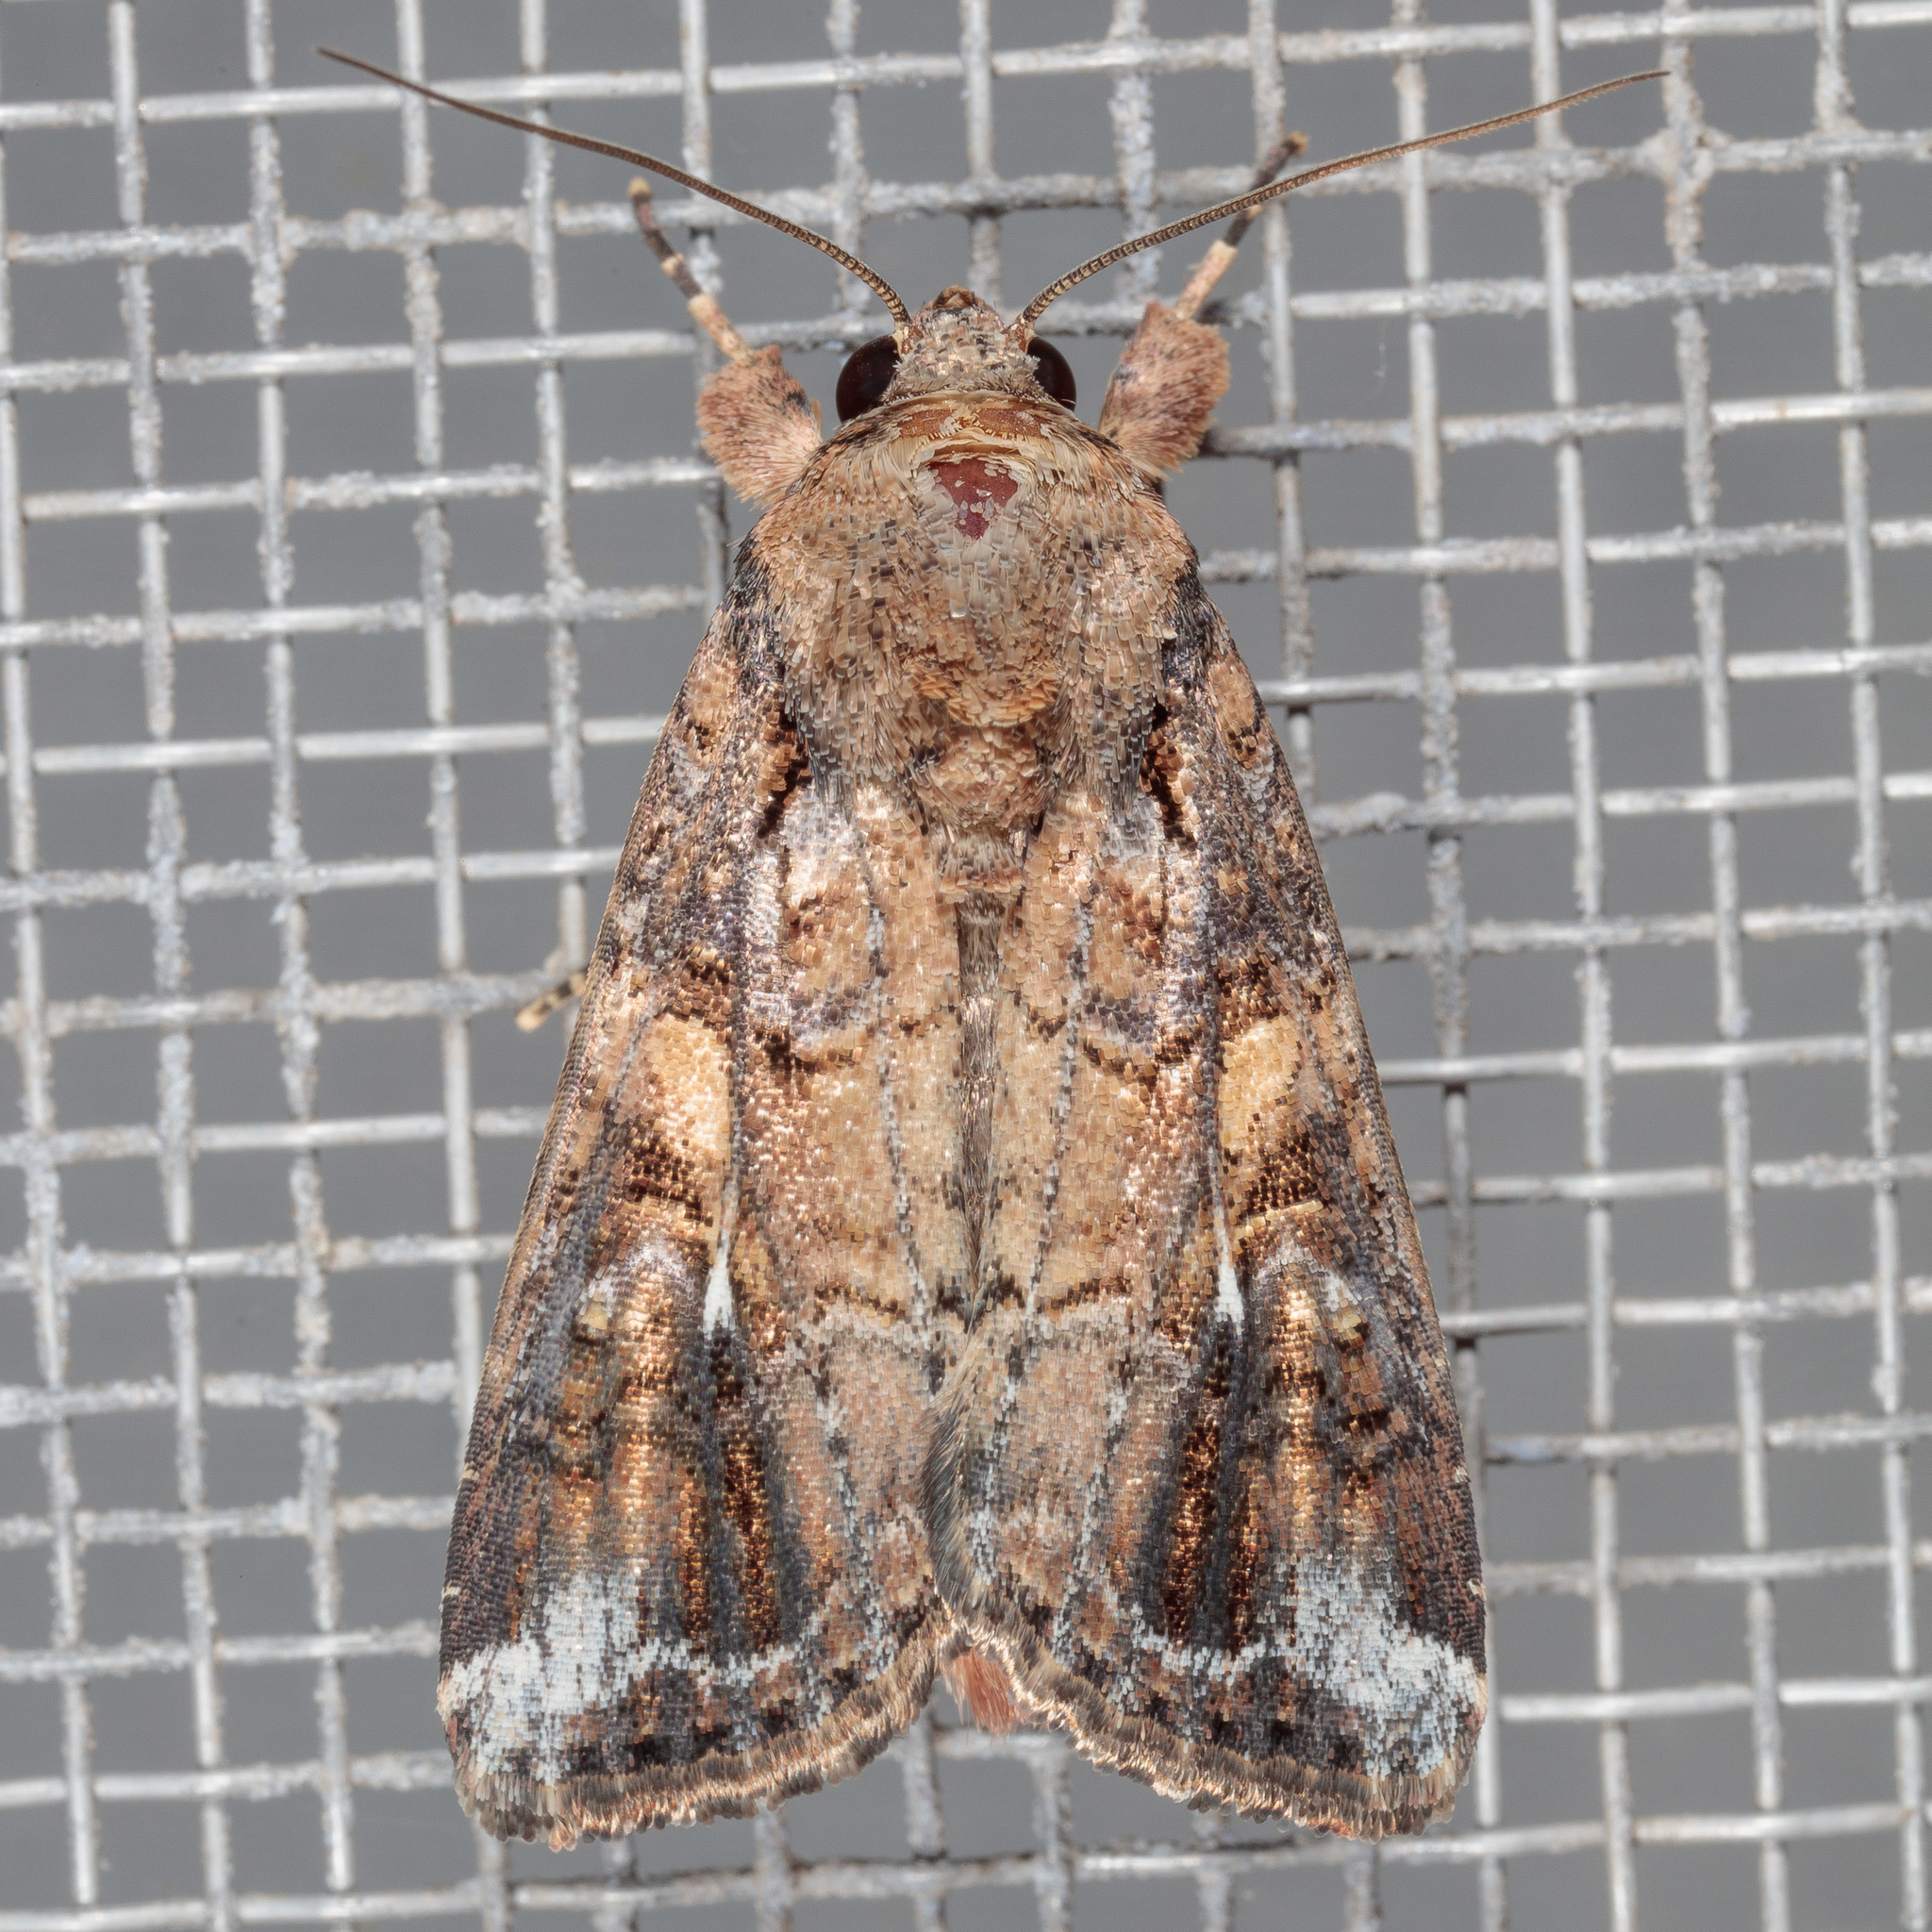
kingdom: Animalia
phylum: Arthropoda
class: Insecta
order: Lepidoptera
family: Noctuidae
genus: Spodoptera
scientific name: Spodoptera frugiperda
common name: Fall armyworm
